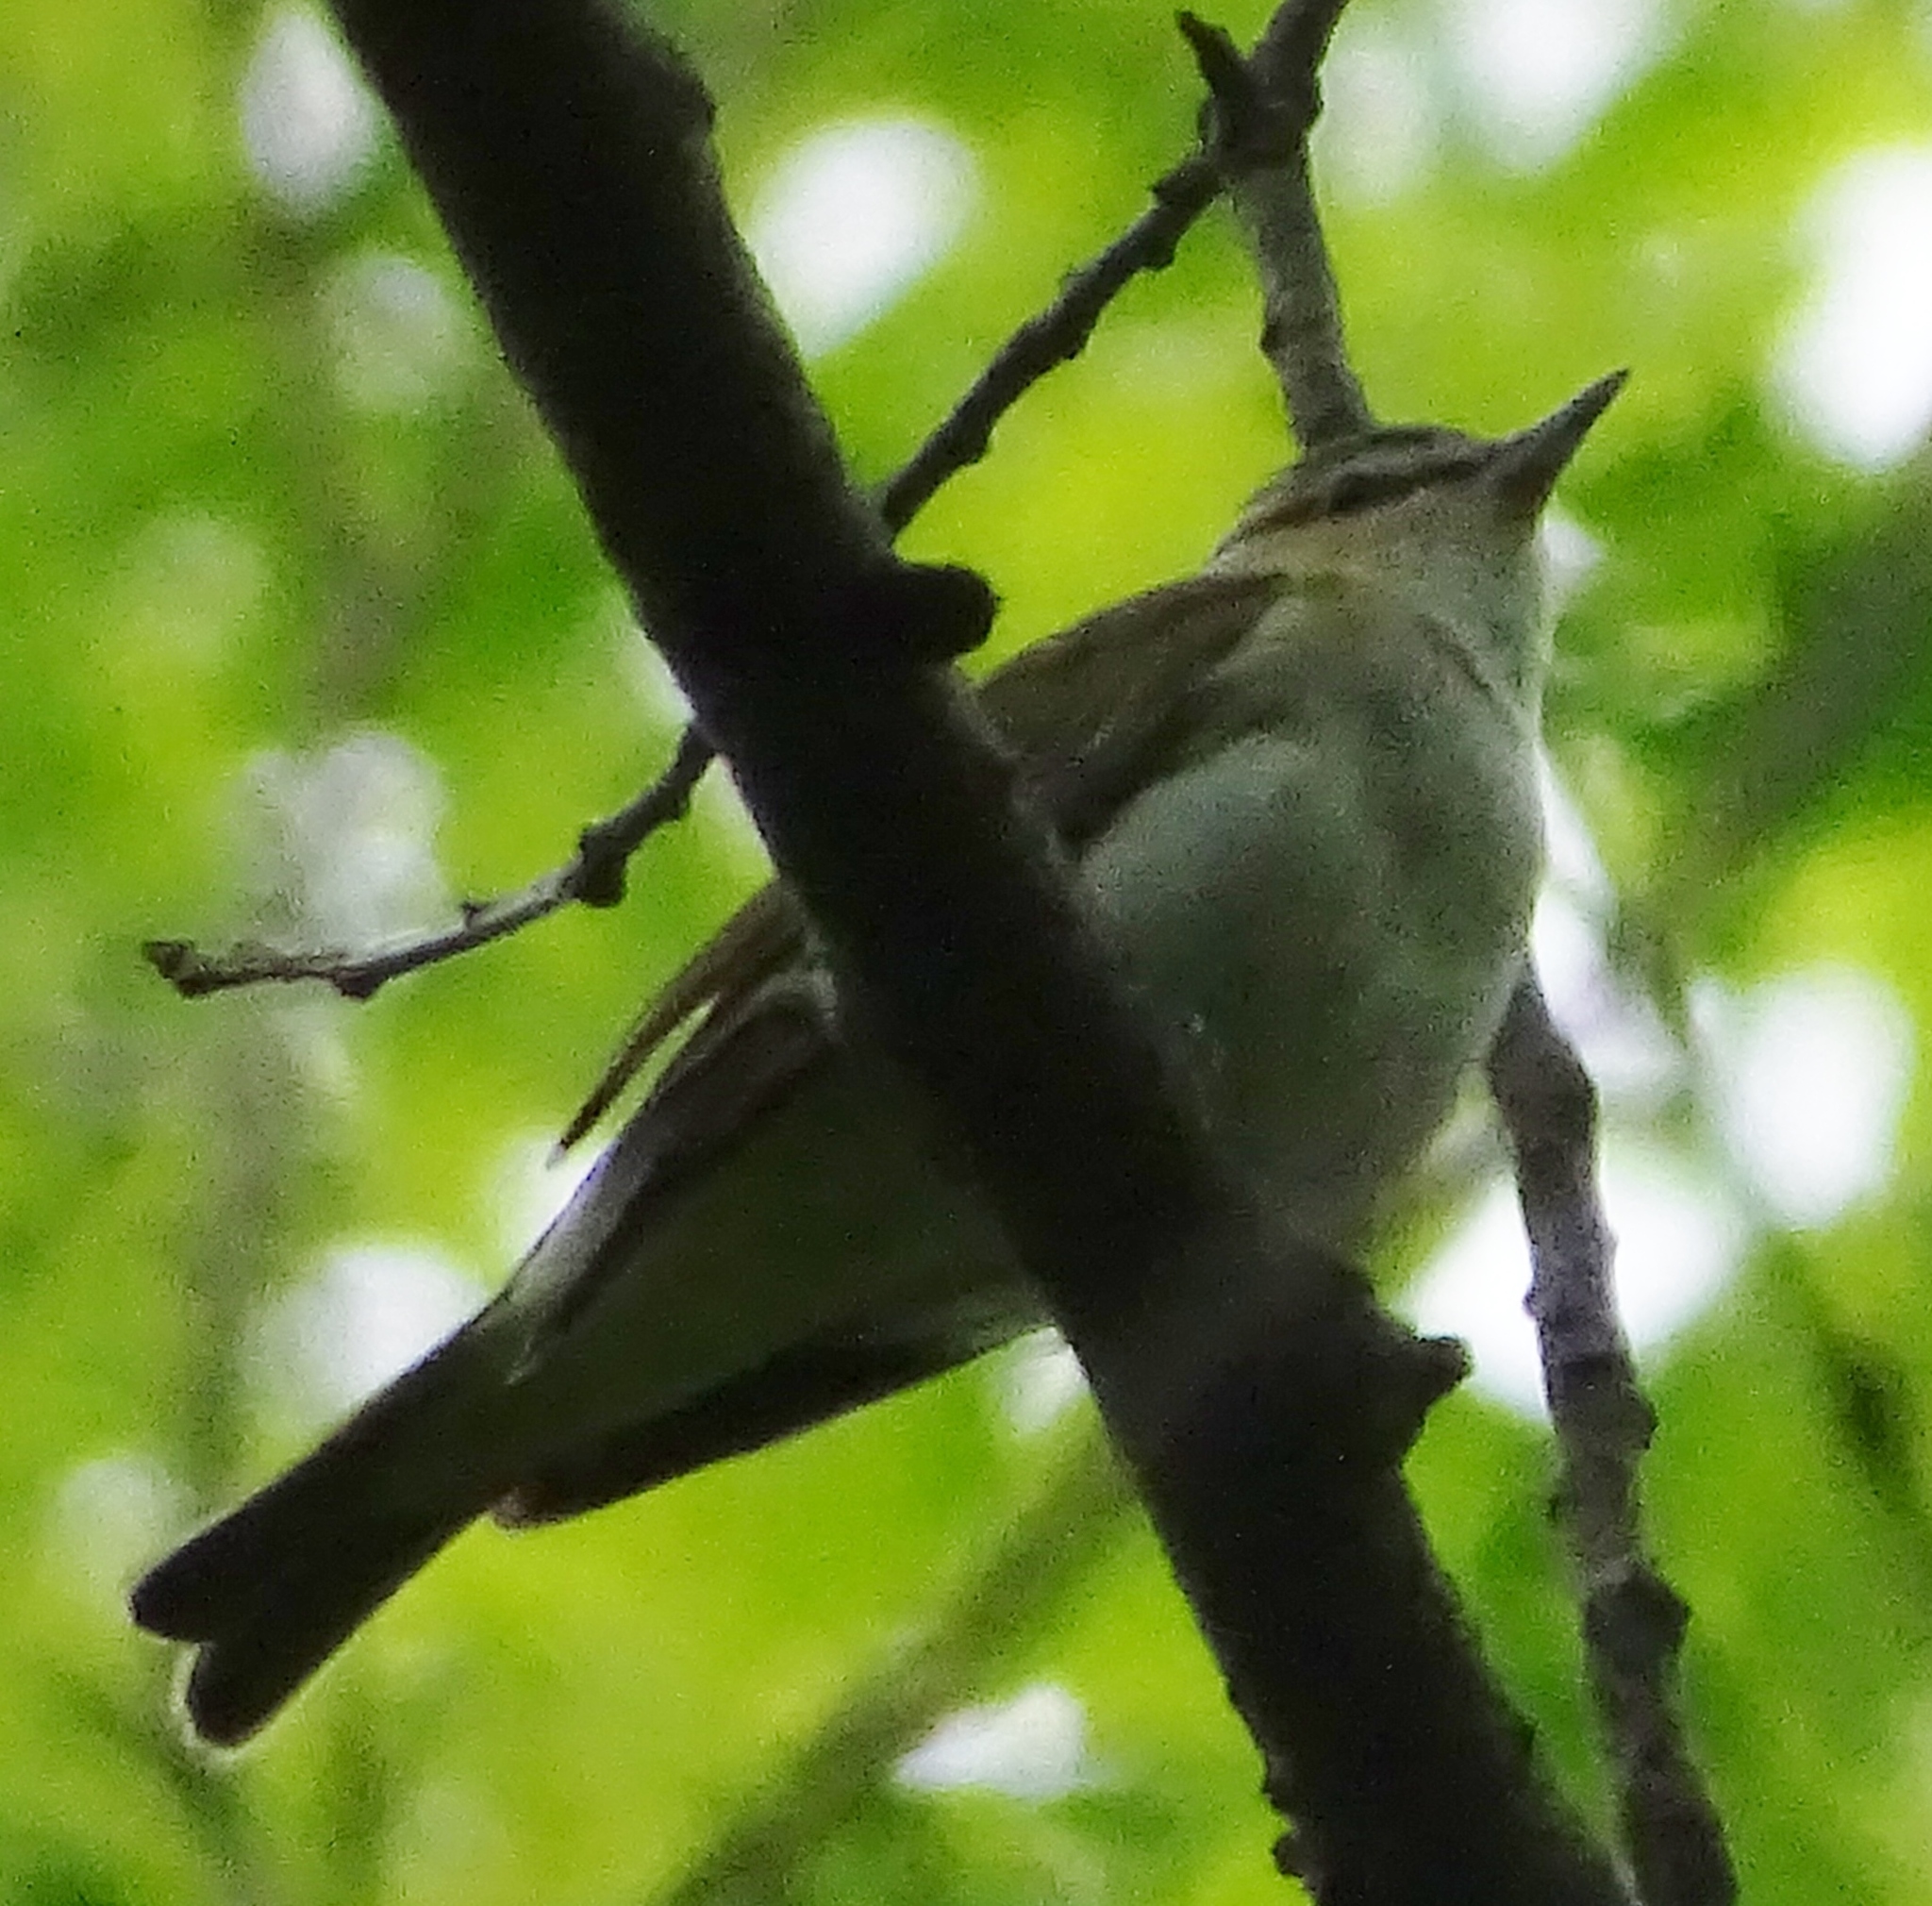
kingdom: Animalia
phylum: Chordata
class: Aves
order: Passeriformes
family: Vireonidae
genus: Vireo
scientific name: Vireo olivaceus
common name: Red-eyed vireo
